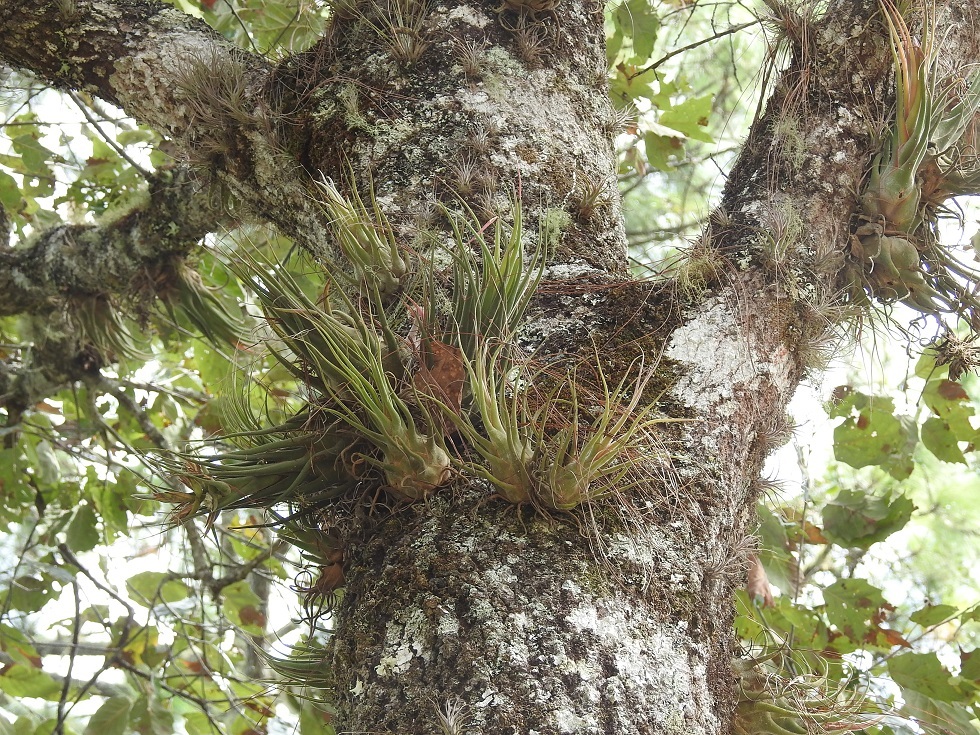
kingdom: Plantae
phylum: Tracheophyta
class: Liliopsida
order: Poales
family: Bromeliaceae
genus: Tillandsia
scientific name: Tillandsia seleriana
